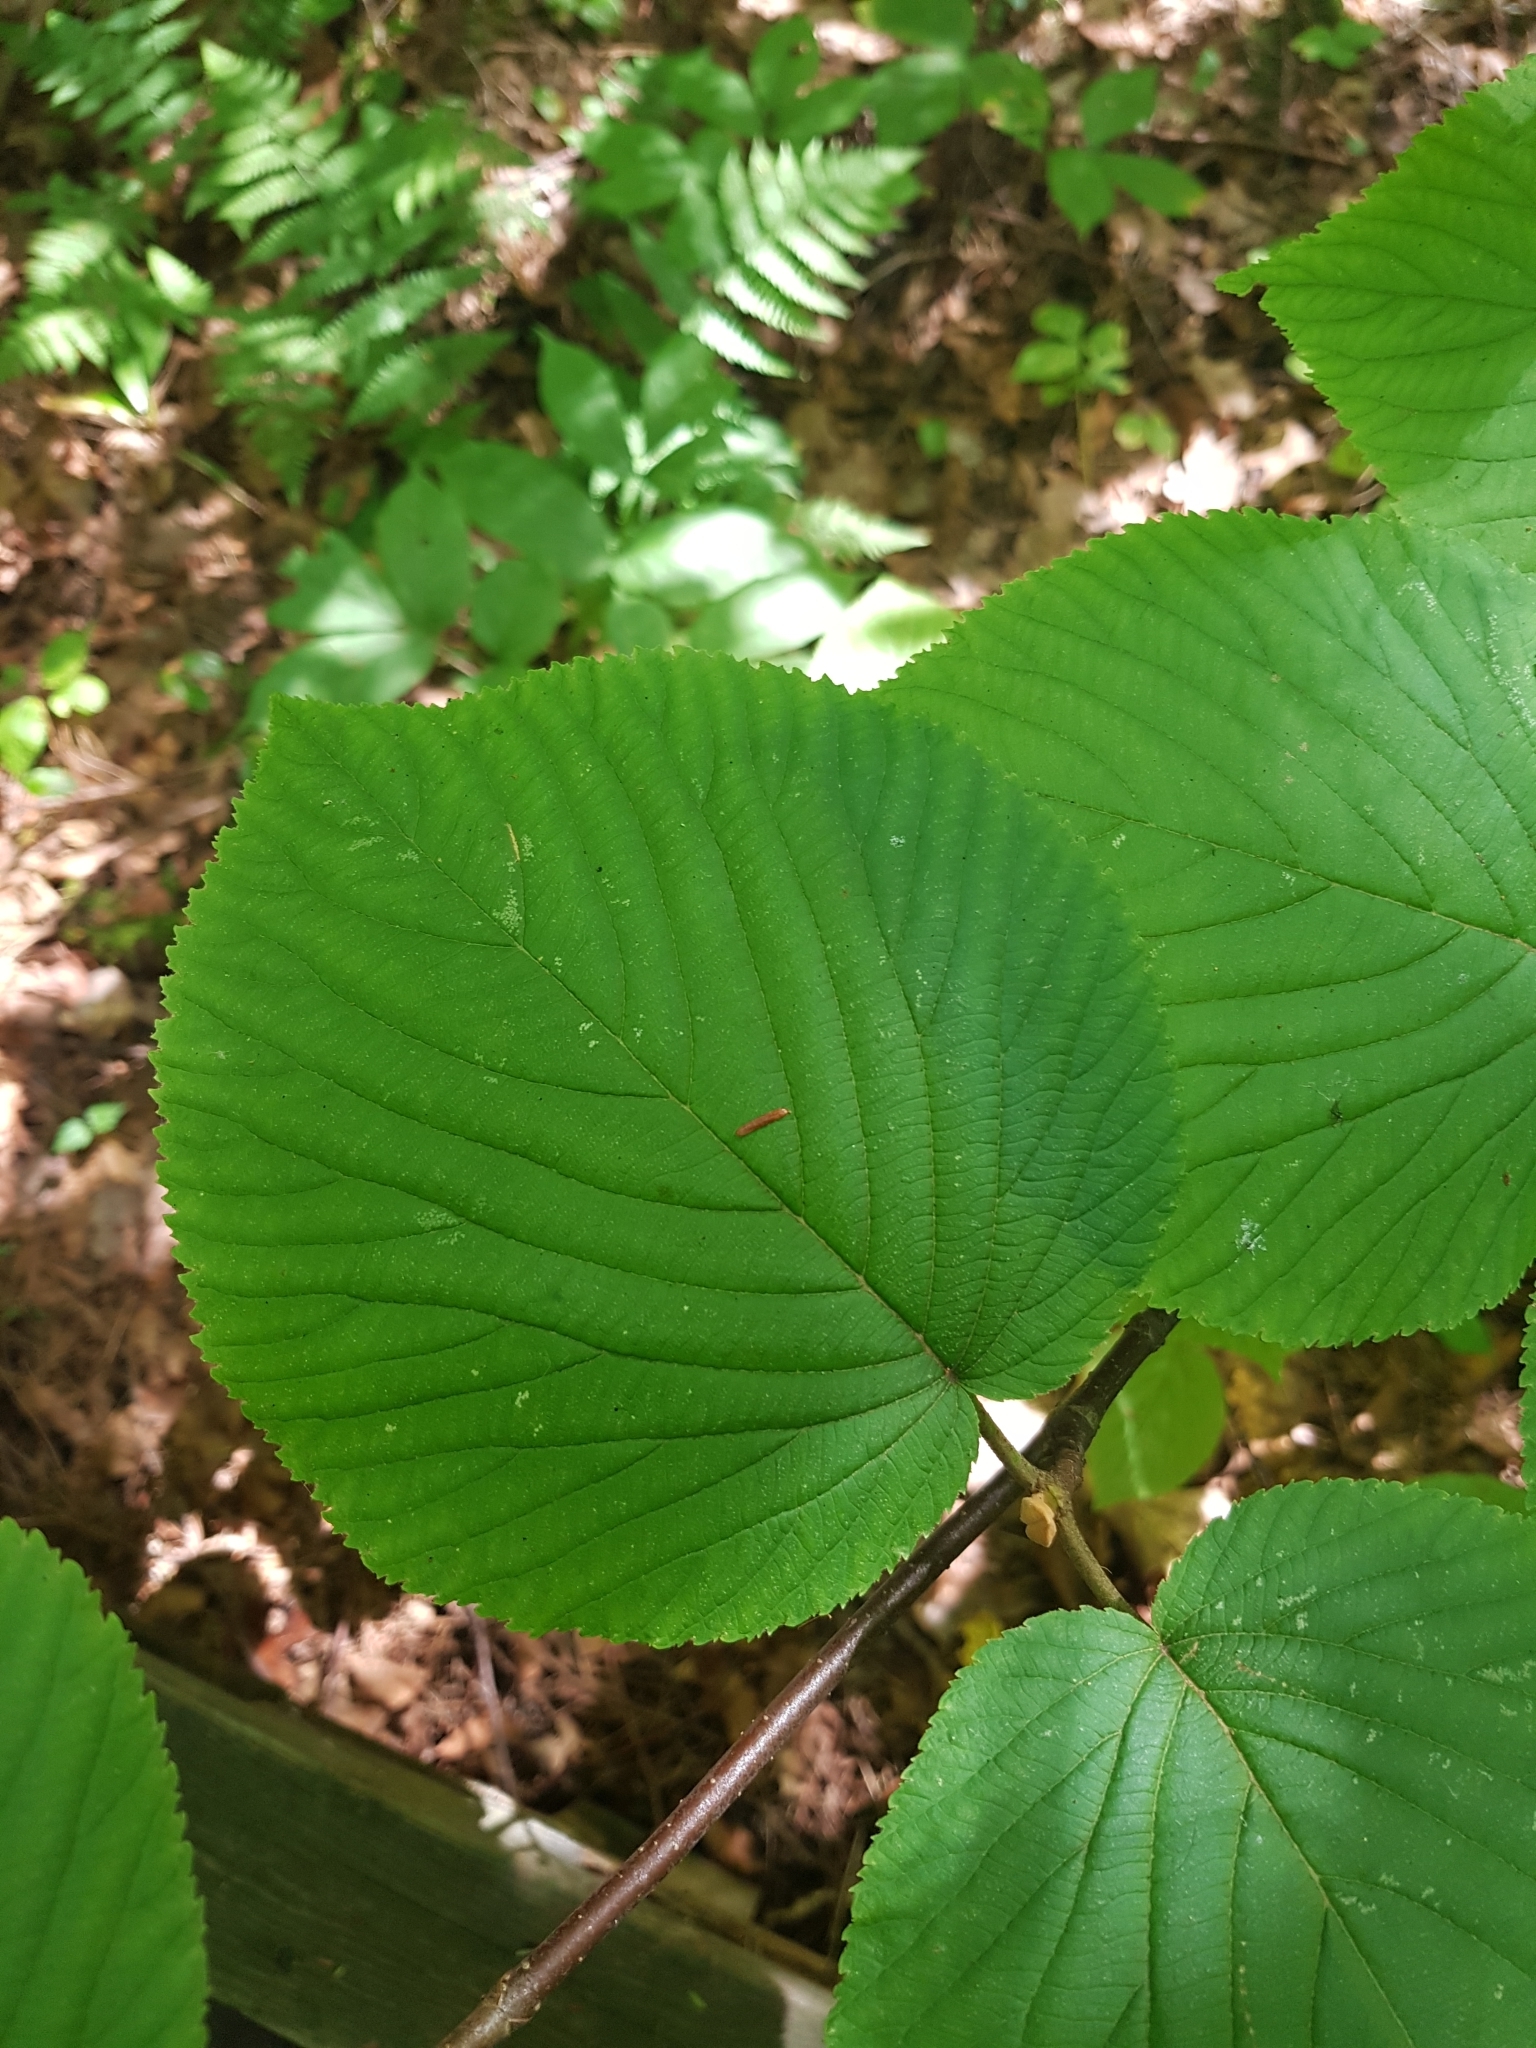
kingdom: Plantae
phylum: Tracheophyta
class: Magnoliopsida
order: Dipsacales
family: Viburnaceae
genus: Viburnum
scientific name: Viburnum lantanoides
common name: Hobblebush
